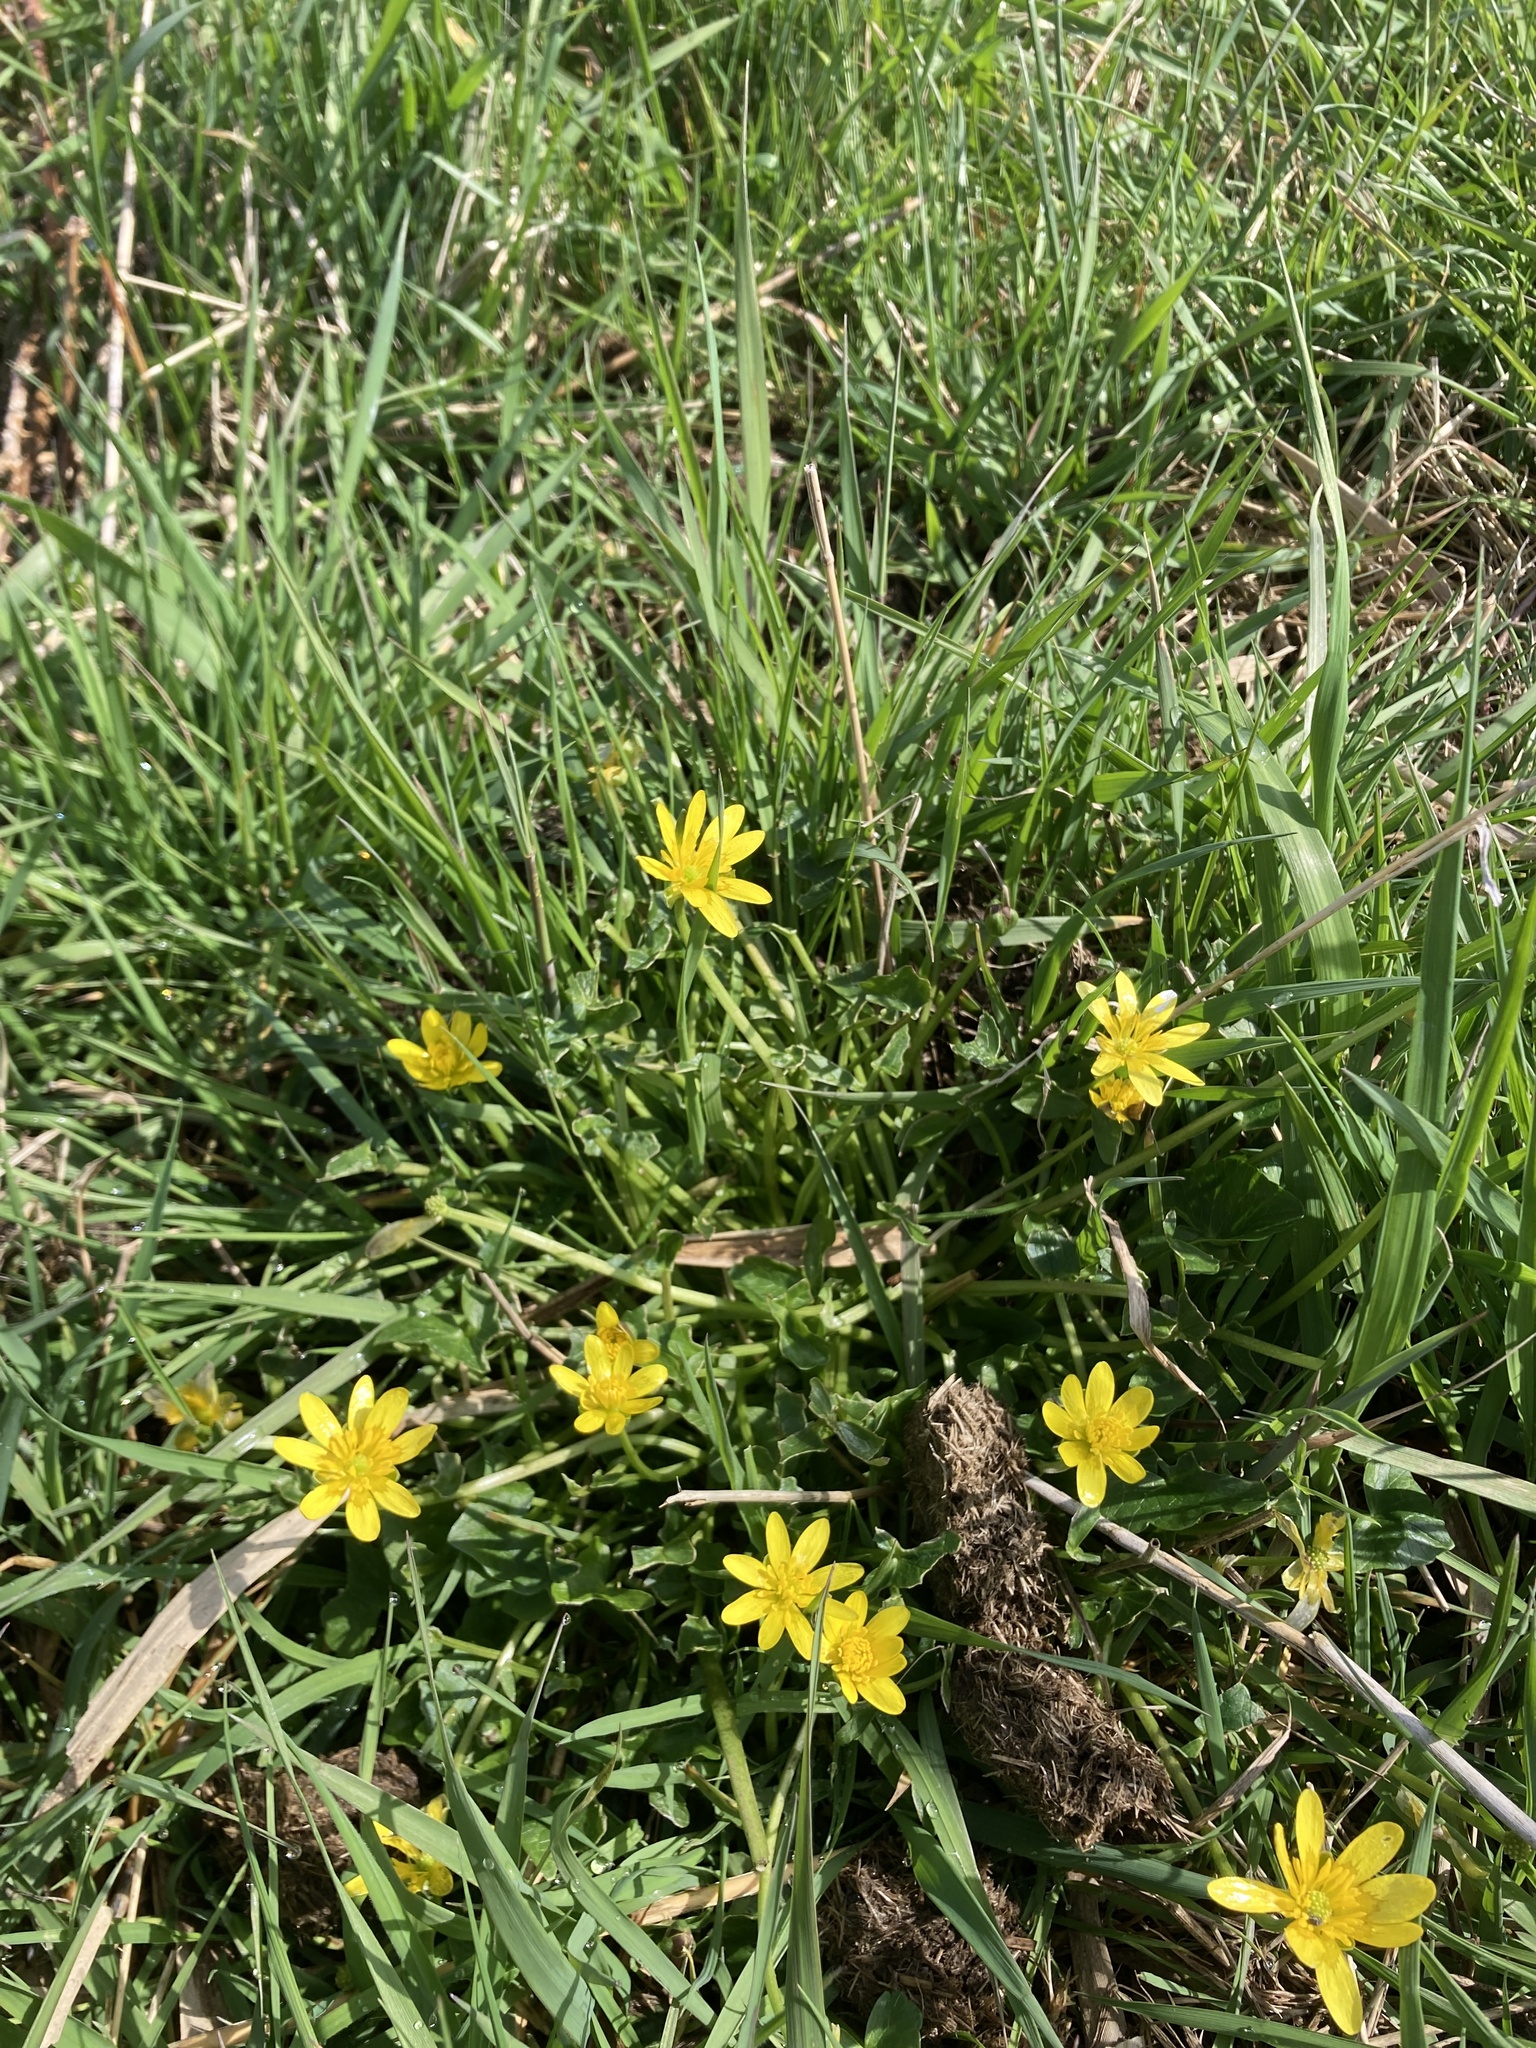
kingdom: Plantae
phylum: Tracheophyta
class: Magnoliopsida
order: Ranunculales
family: Ranunculaceae
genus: Ficaria
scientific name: Ficaria verna
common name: Lesser celandine
